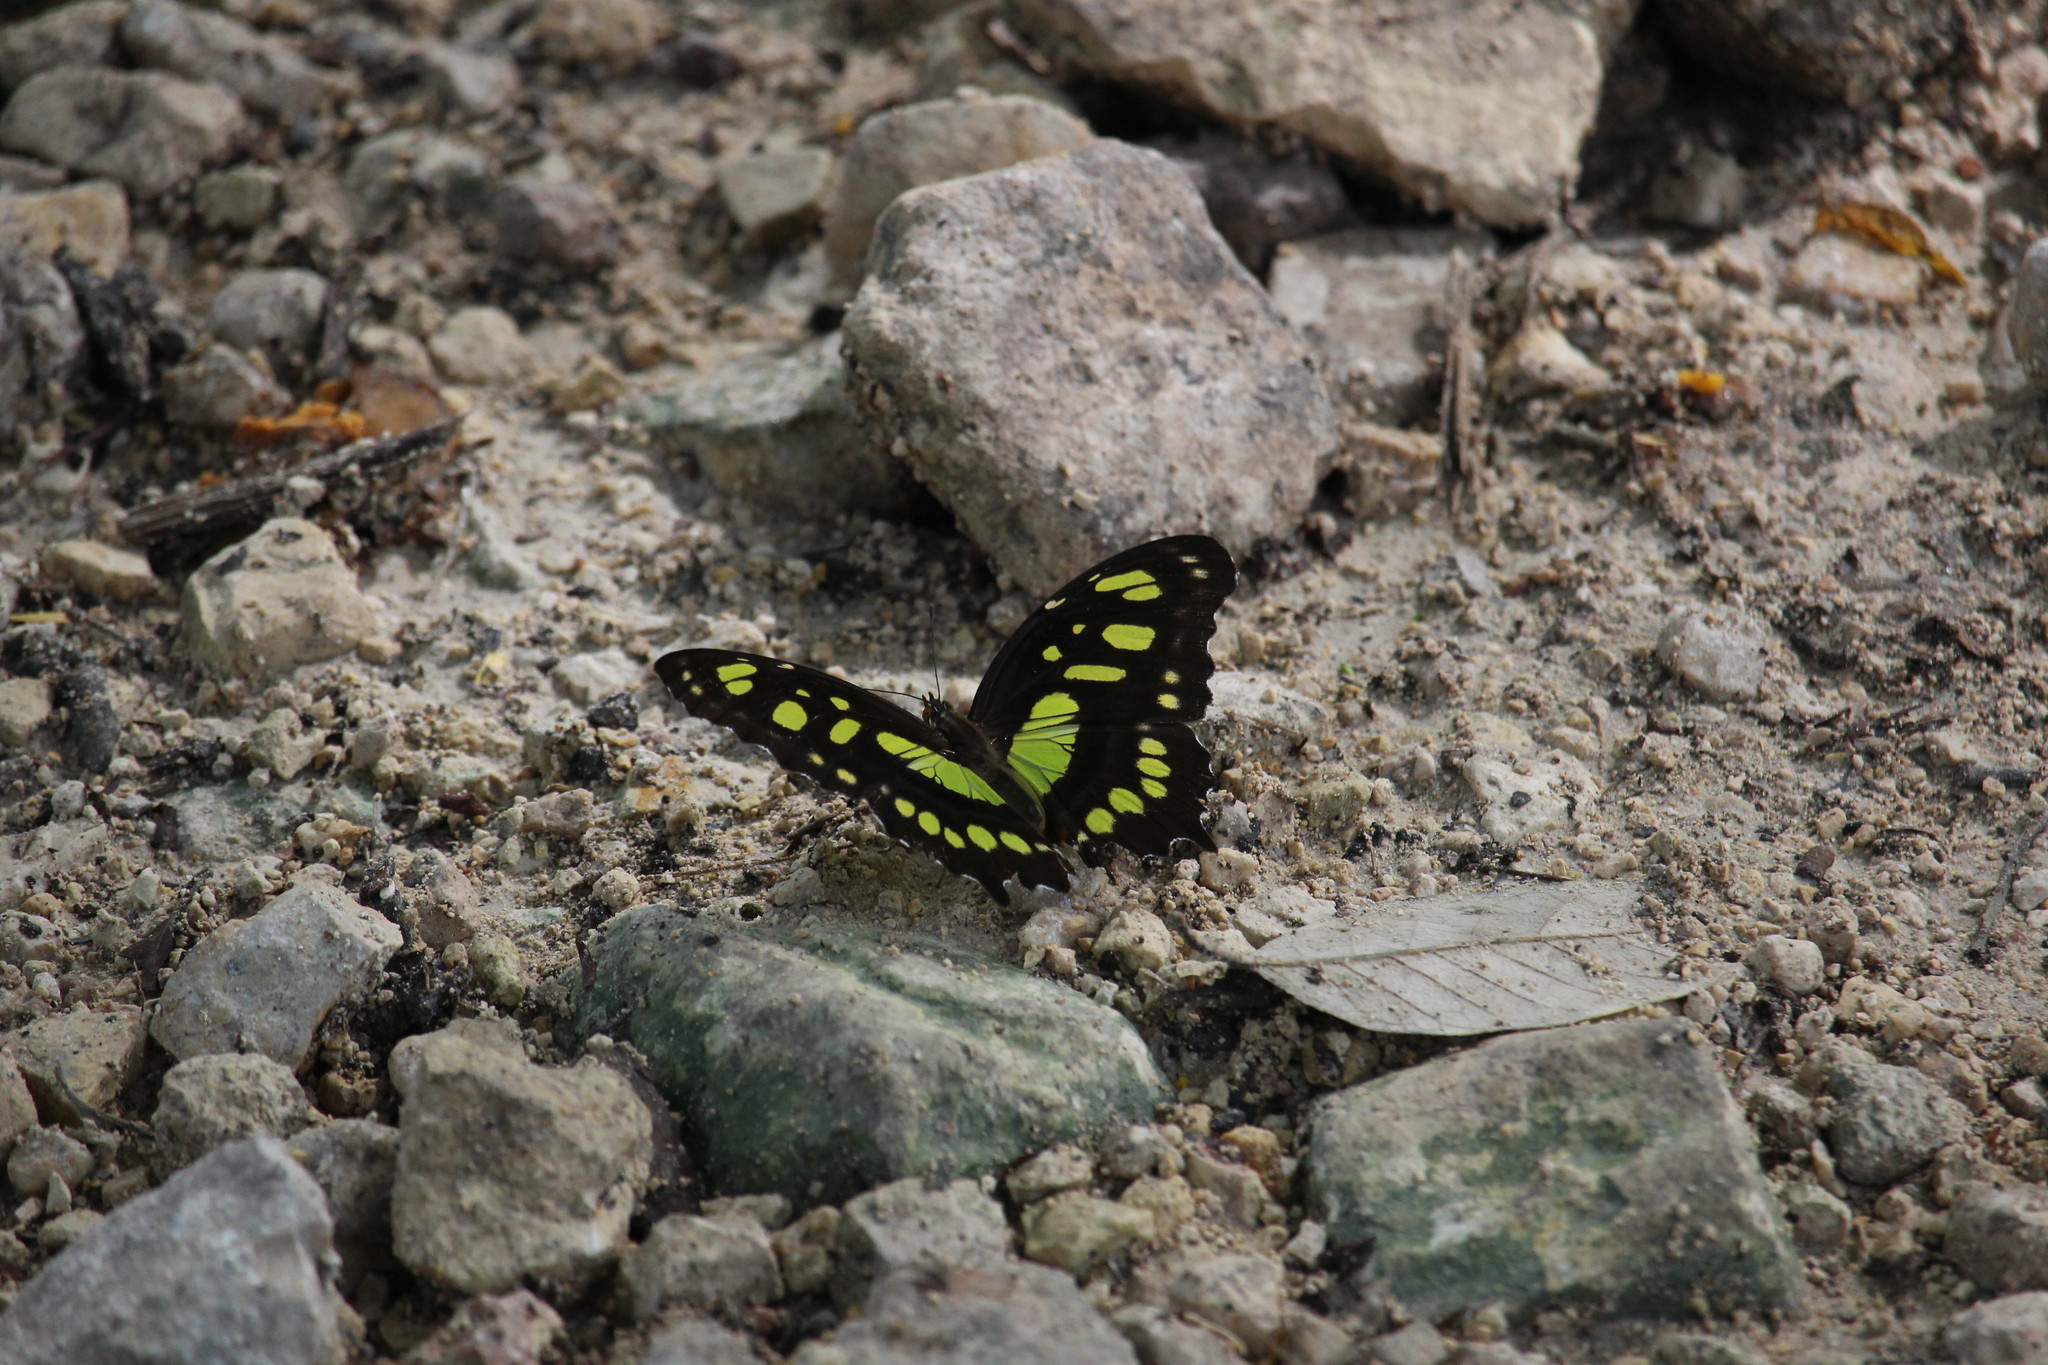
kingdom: Animalia
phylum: Arthropoda
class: Insecta
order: Lepidoptera
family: Nymphalidae
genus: Siproeta
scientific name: Siproeta stelenes
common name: Malachite
